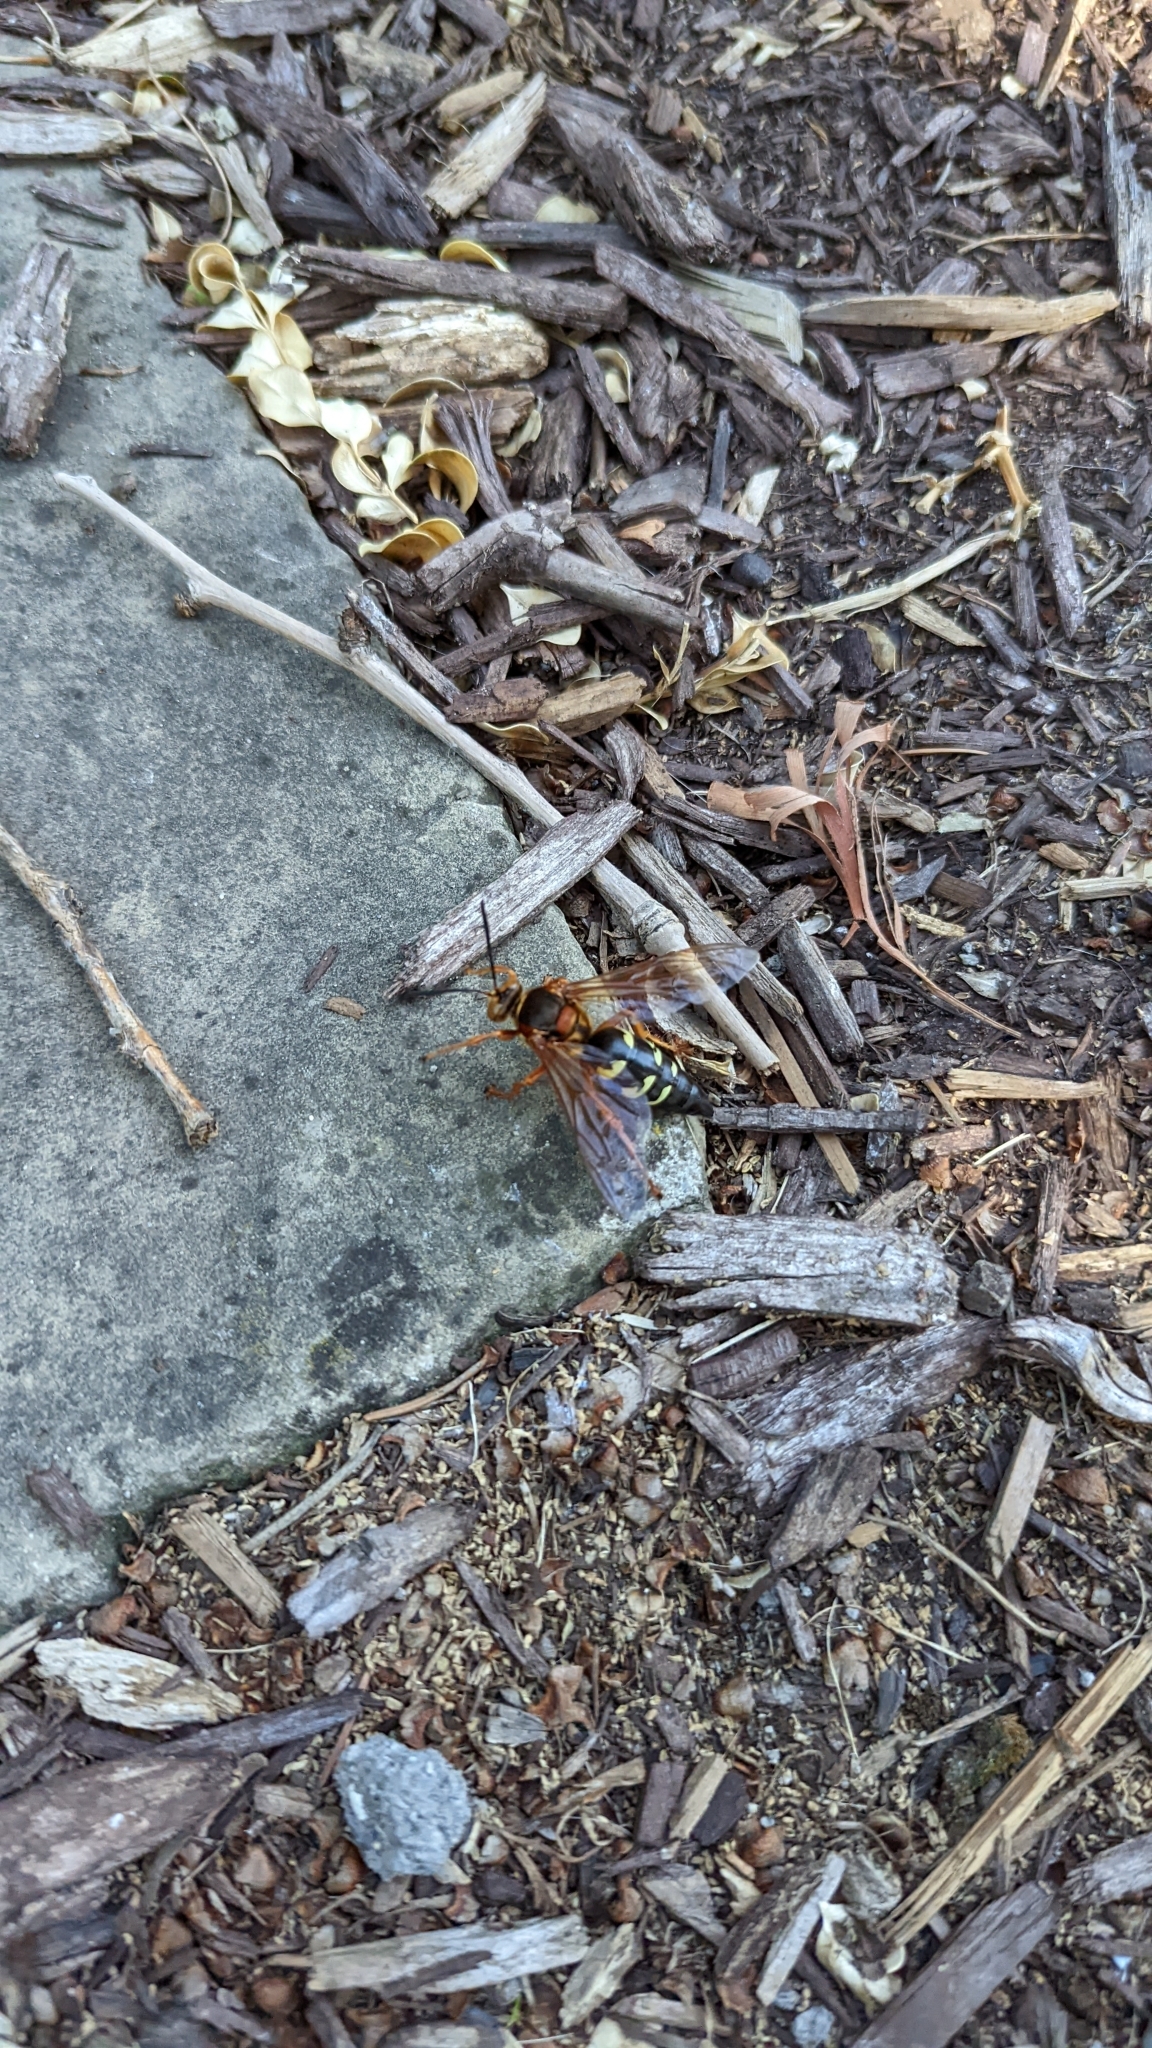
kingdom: Animalia
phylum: Arthropoda
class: Insecta
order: Hymenoptera
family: Crabronidae
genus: Sphecius
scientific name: Sphecius speciosus
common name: Cicada killer
